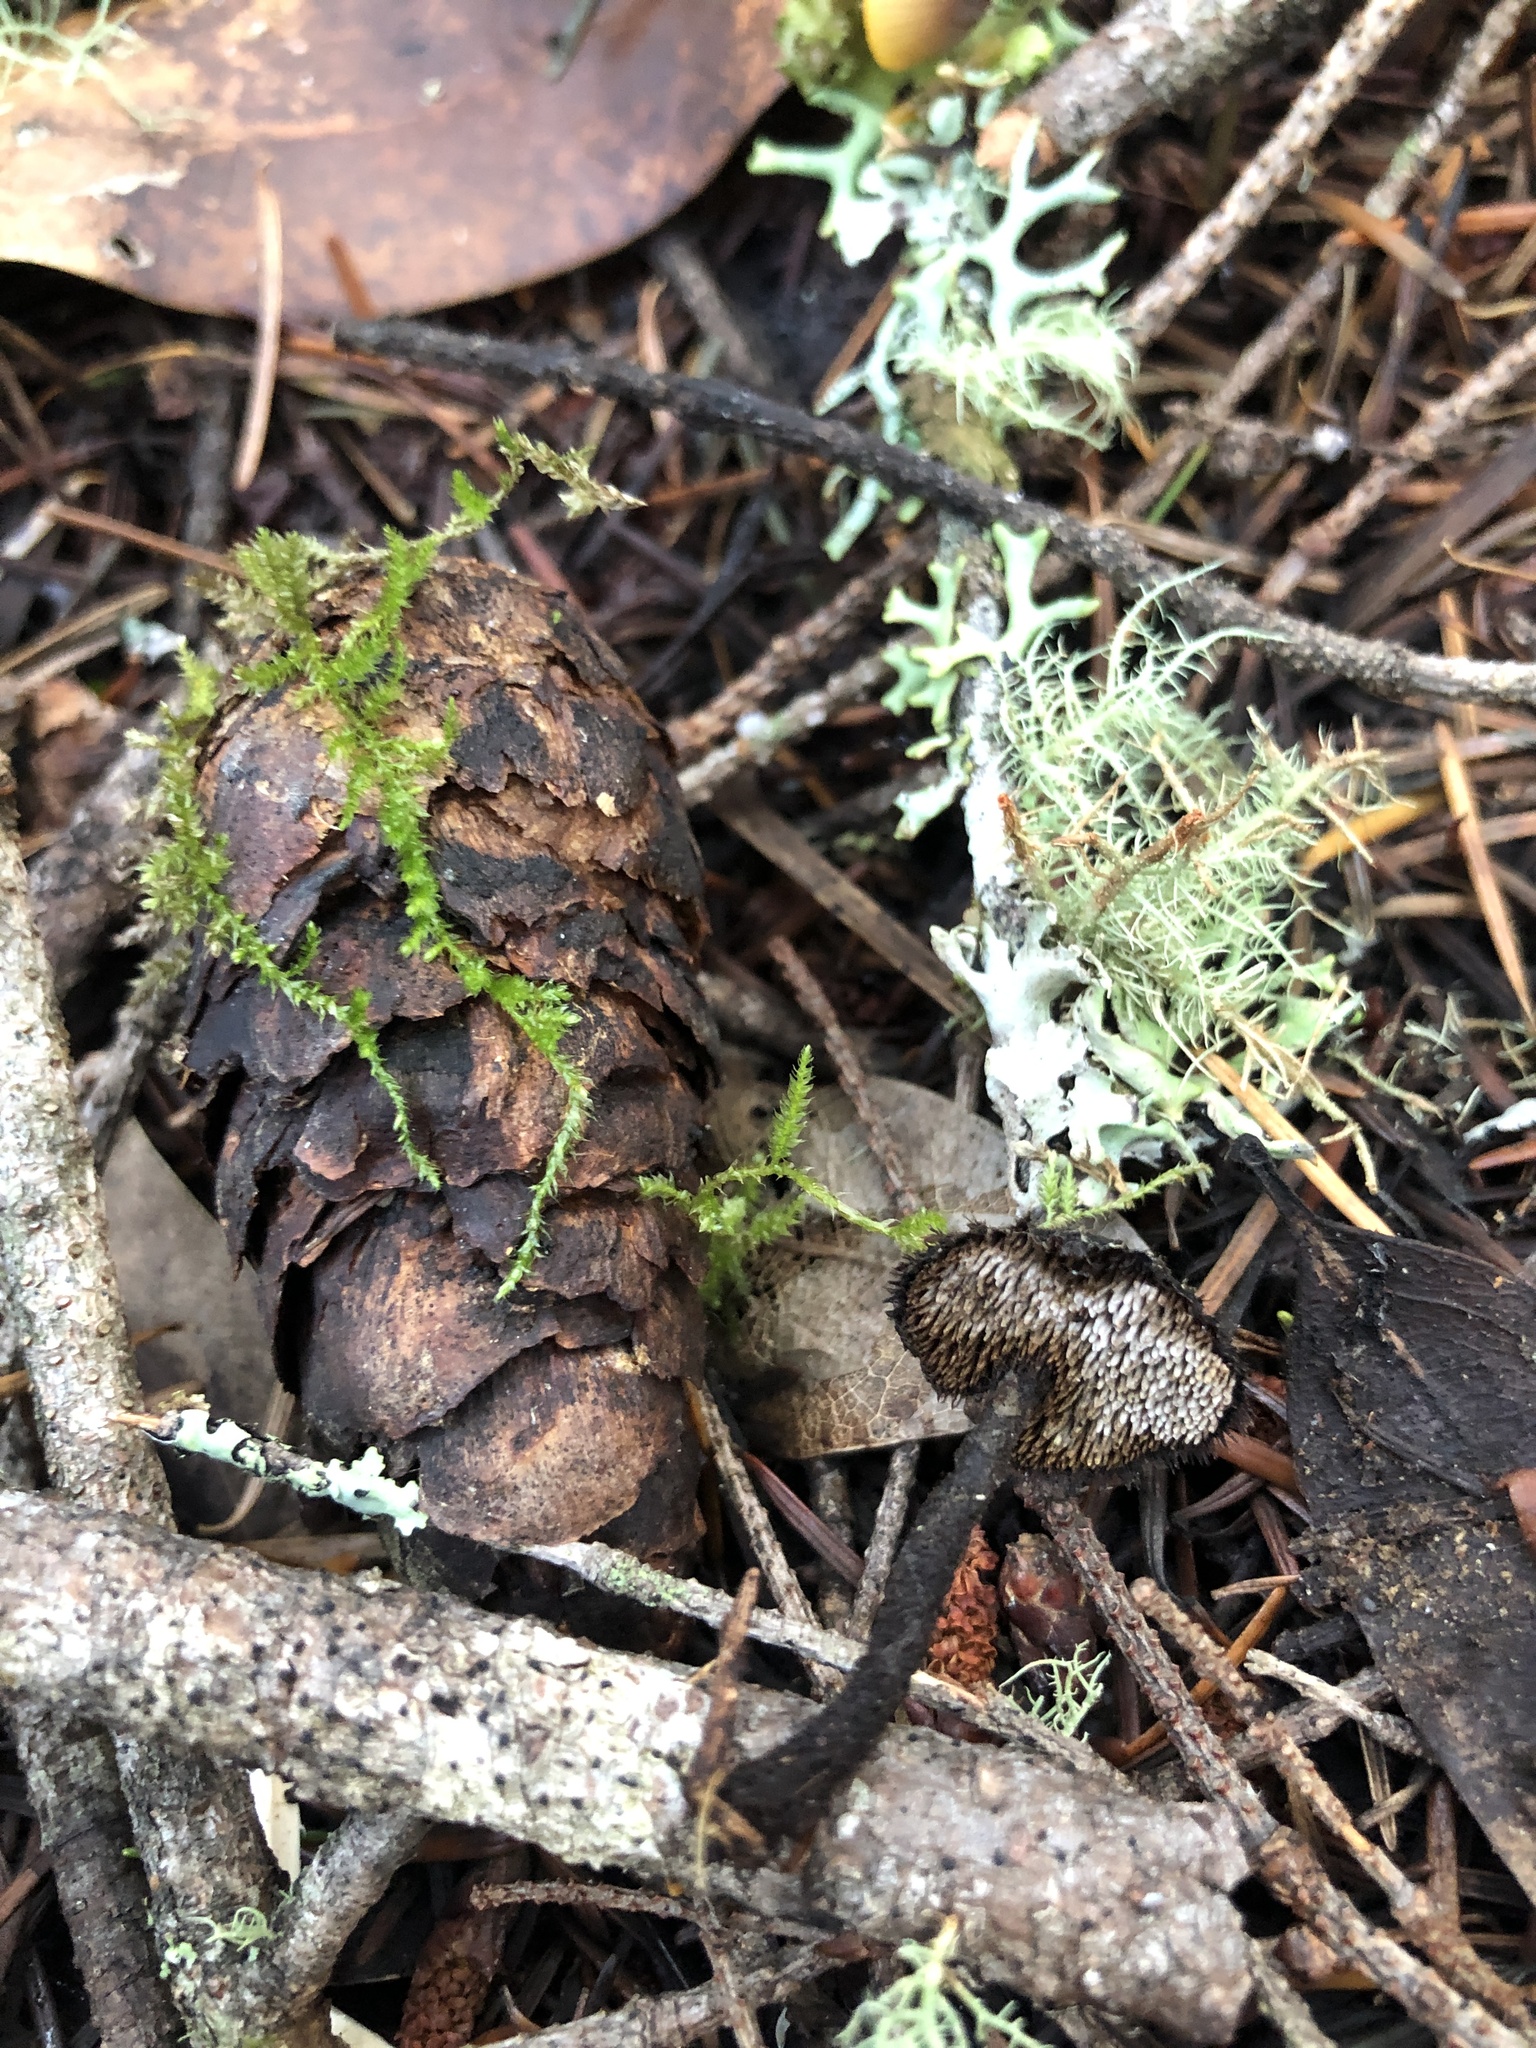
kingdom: Fungi
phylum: Basidiomycota
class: Agaricomycetes
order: Russulales
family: Auriscalpiaceae
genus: Auriscalpium
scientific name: Auriscalpium vulgare
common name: Earpick fungus
